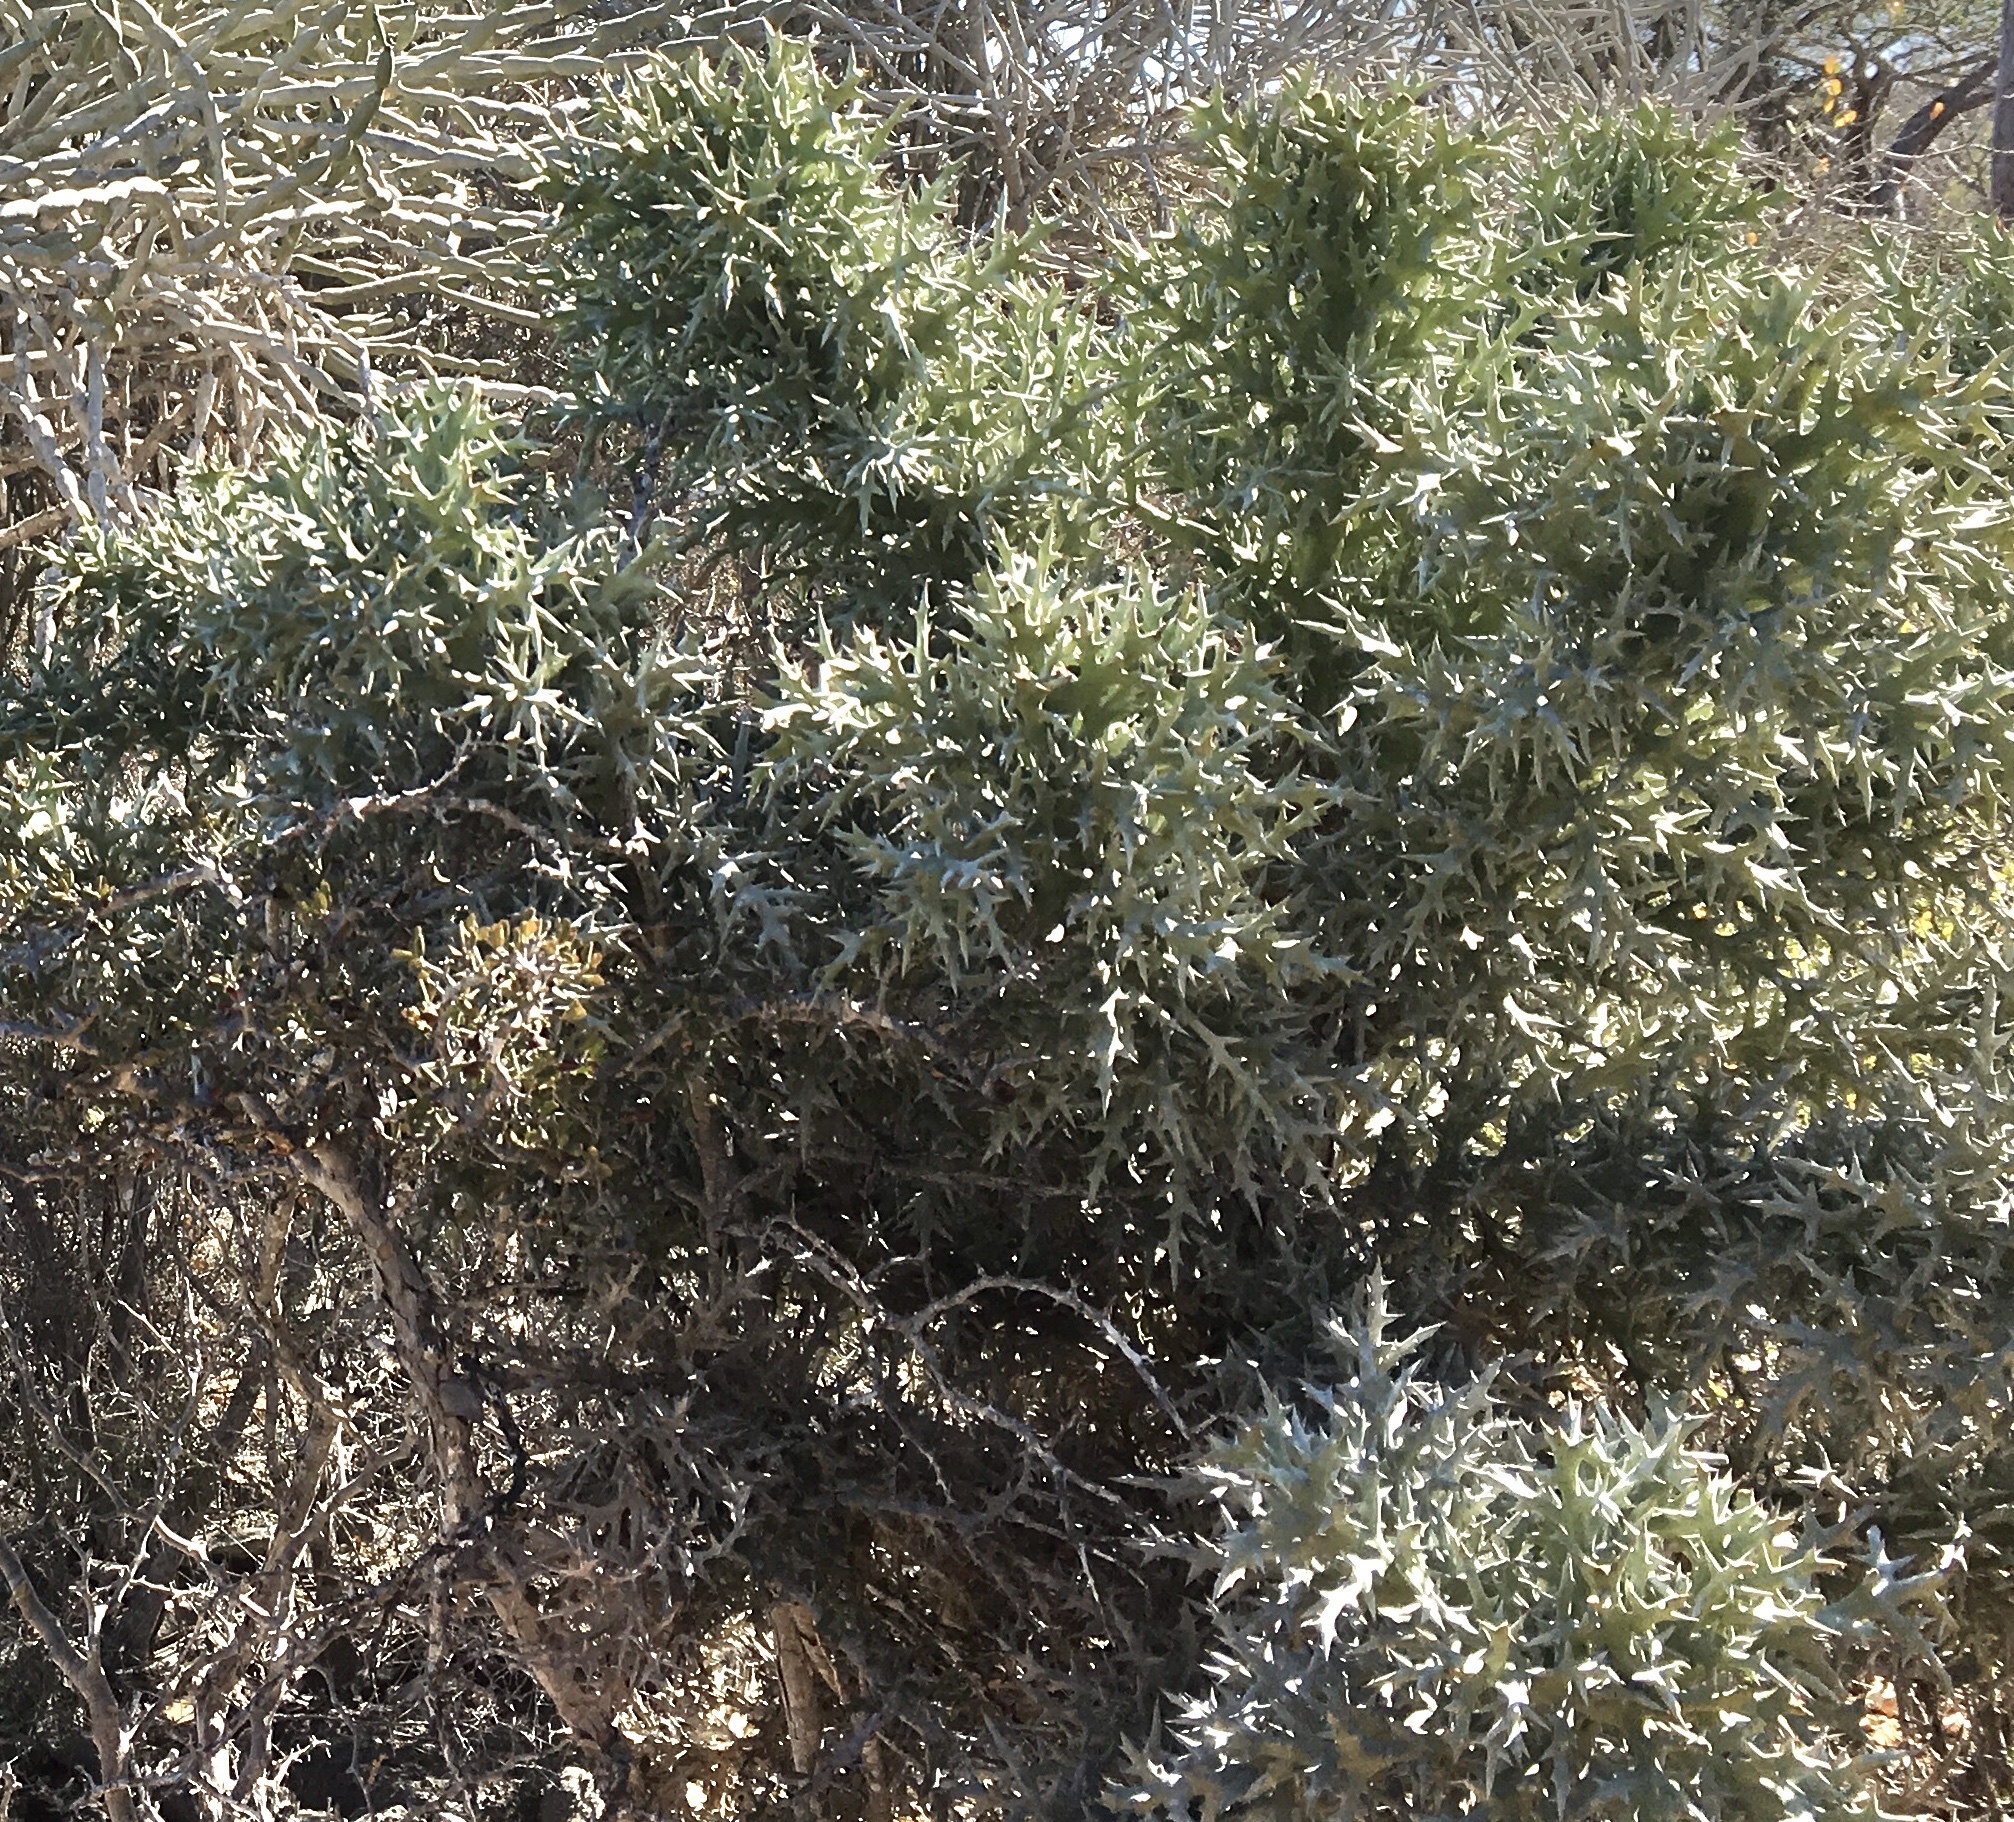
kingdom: Plantae
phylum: Tracheophyta
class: Magnoliopsida
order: Malpighiales
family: Euphorbiaceae
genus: Euphorbia
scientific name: Euphorbia stenoclada
